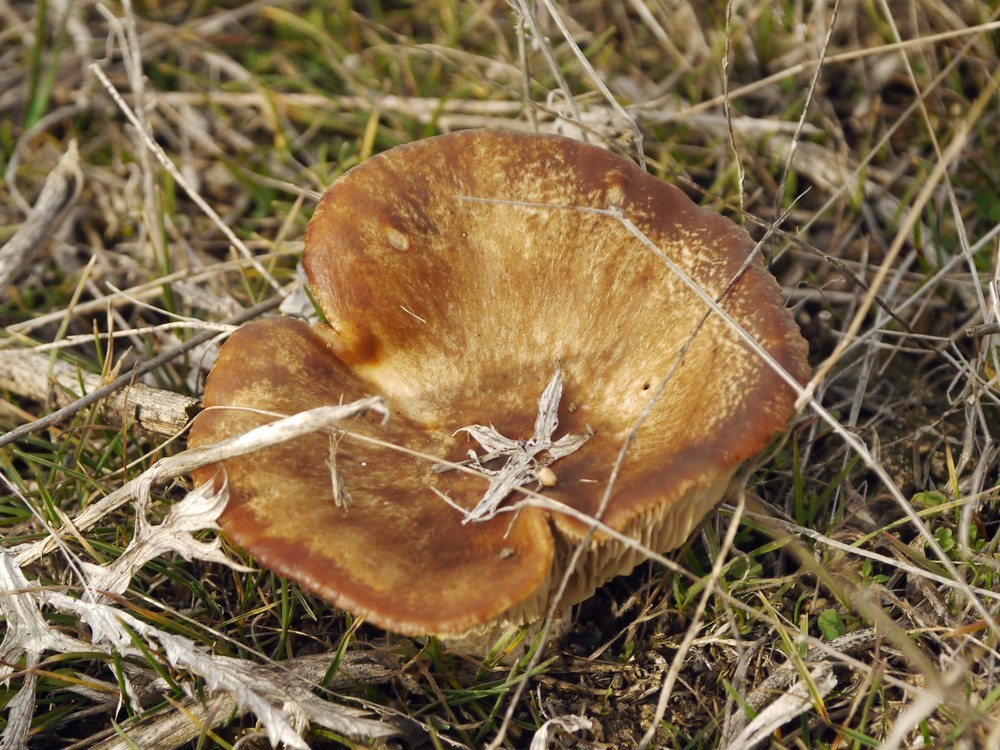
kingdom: Fungi
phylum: Basidiomycota
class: Agaricomycetes
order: Agaricales
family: Pleurotaceae
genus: Pleurotus
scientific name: Pleurotus eryngii
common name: King oyster
